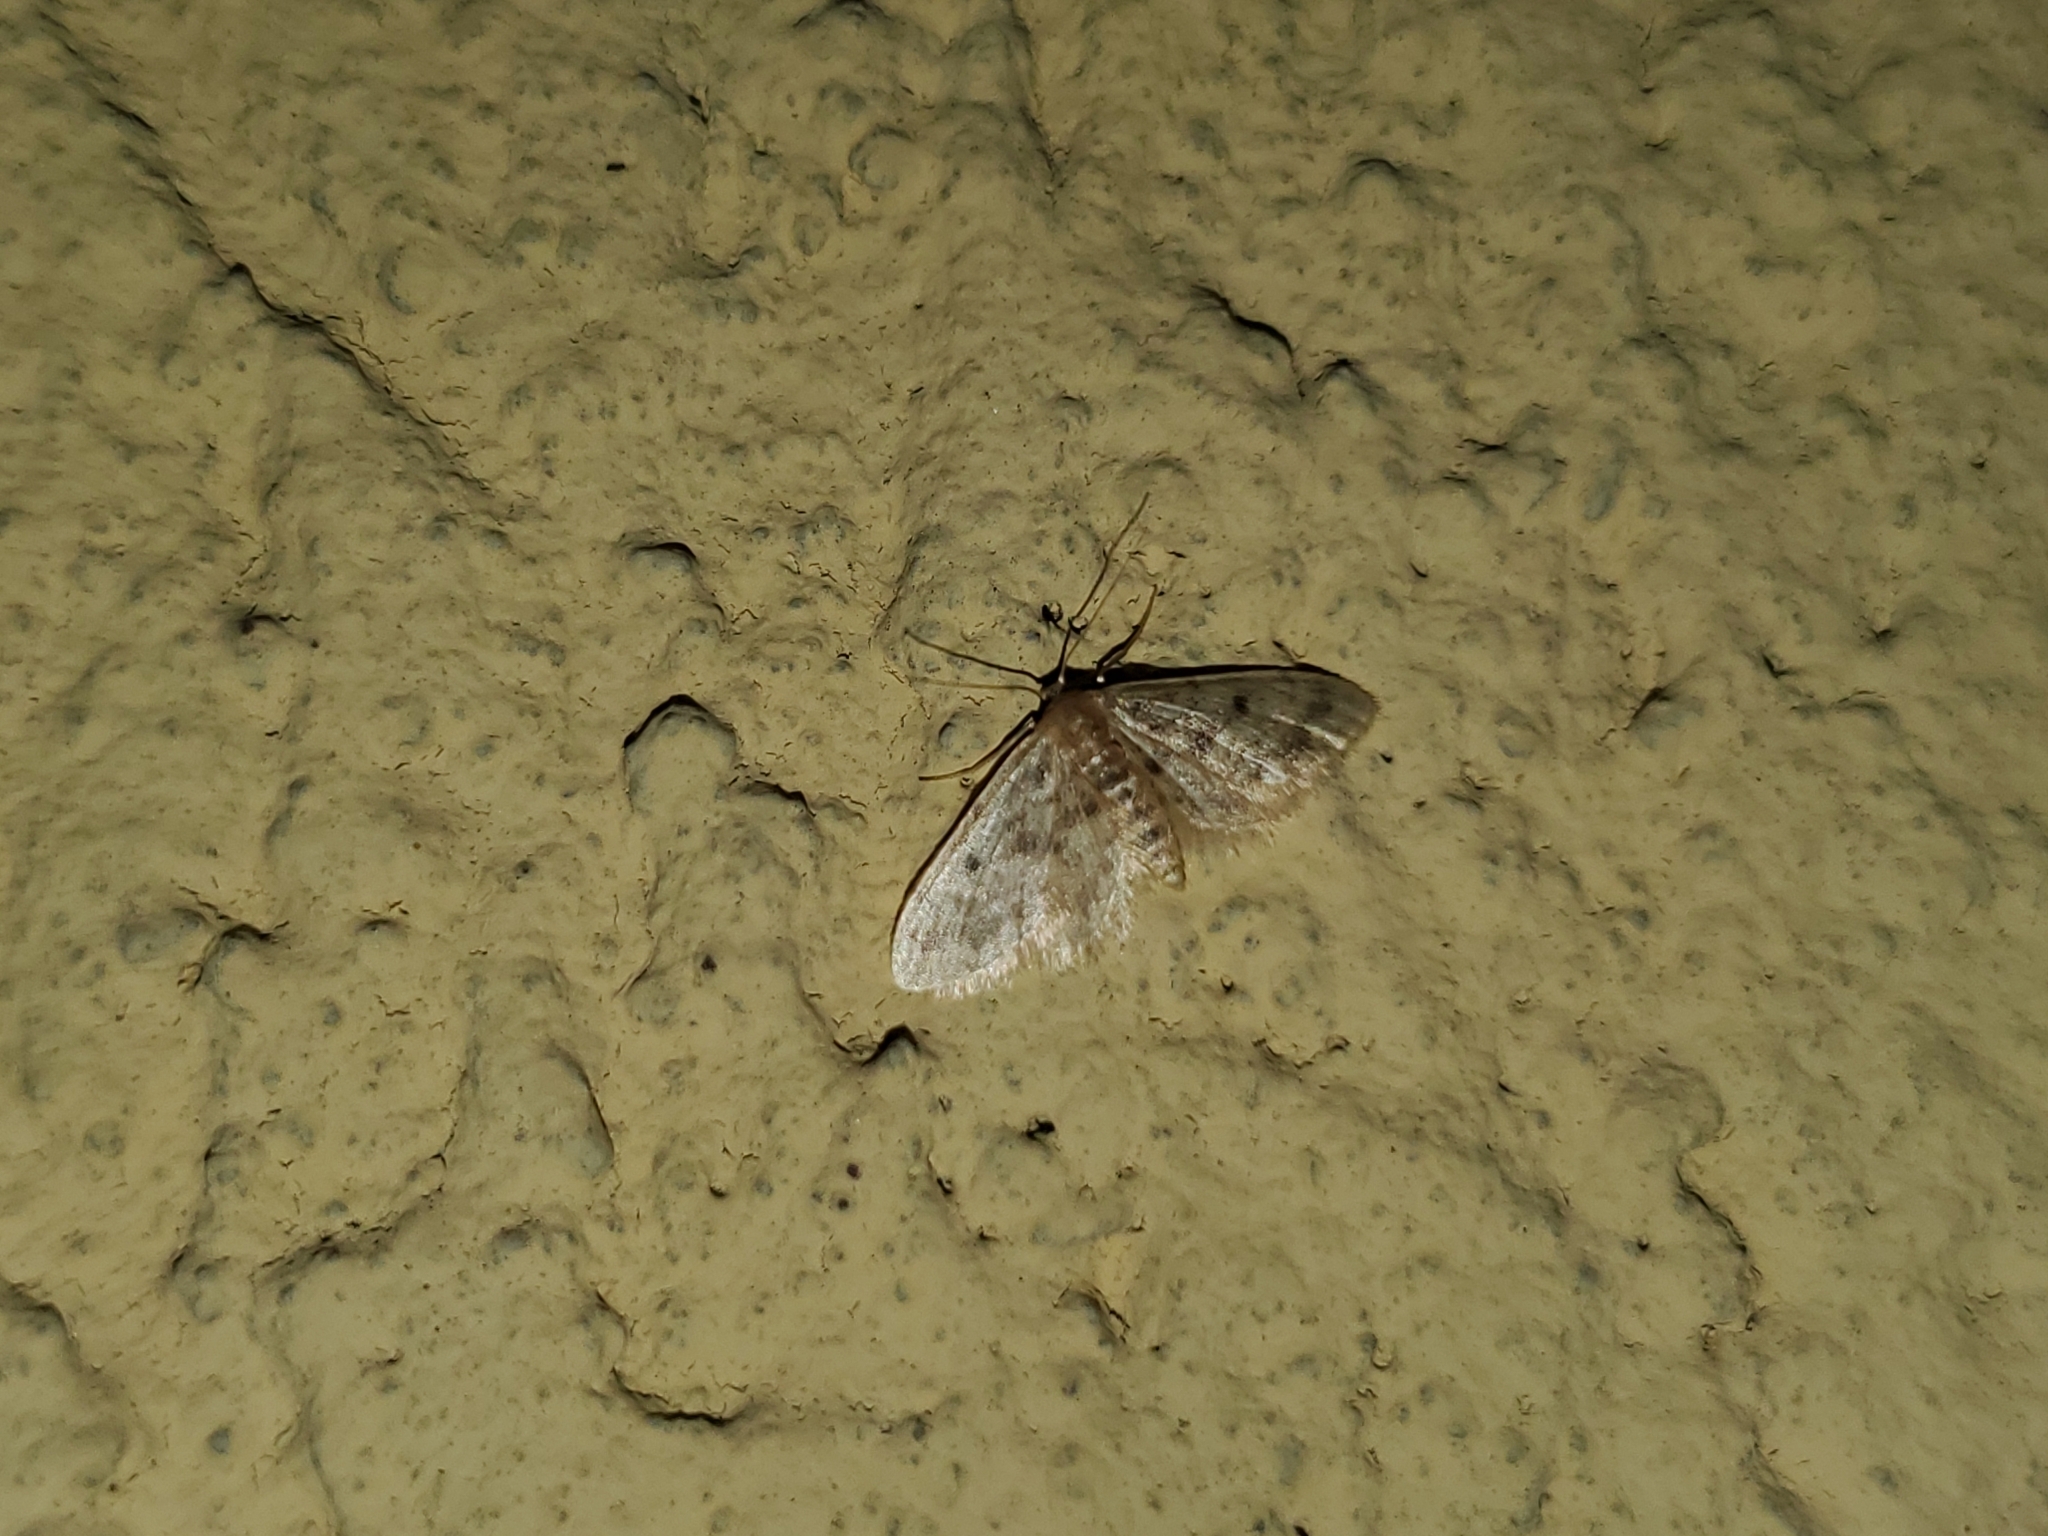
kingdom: Animalia
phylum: Arthropoda
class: Insecta
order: Lepidoptera
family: Geometridae
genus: Idaea
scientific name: Idaea bonifata
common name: Fortunate wave
